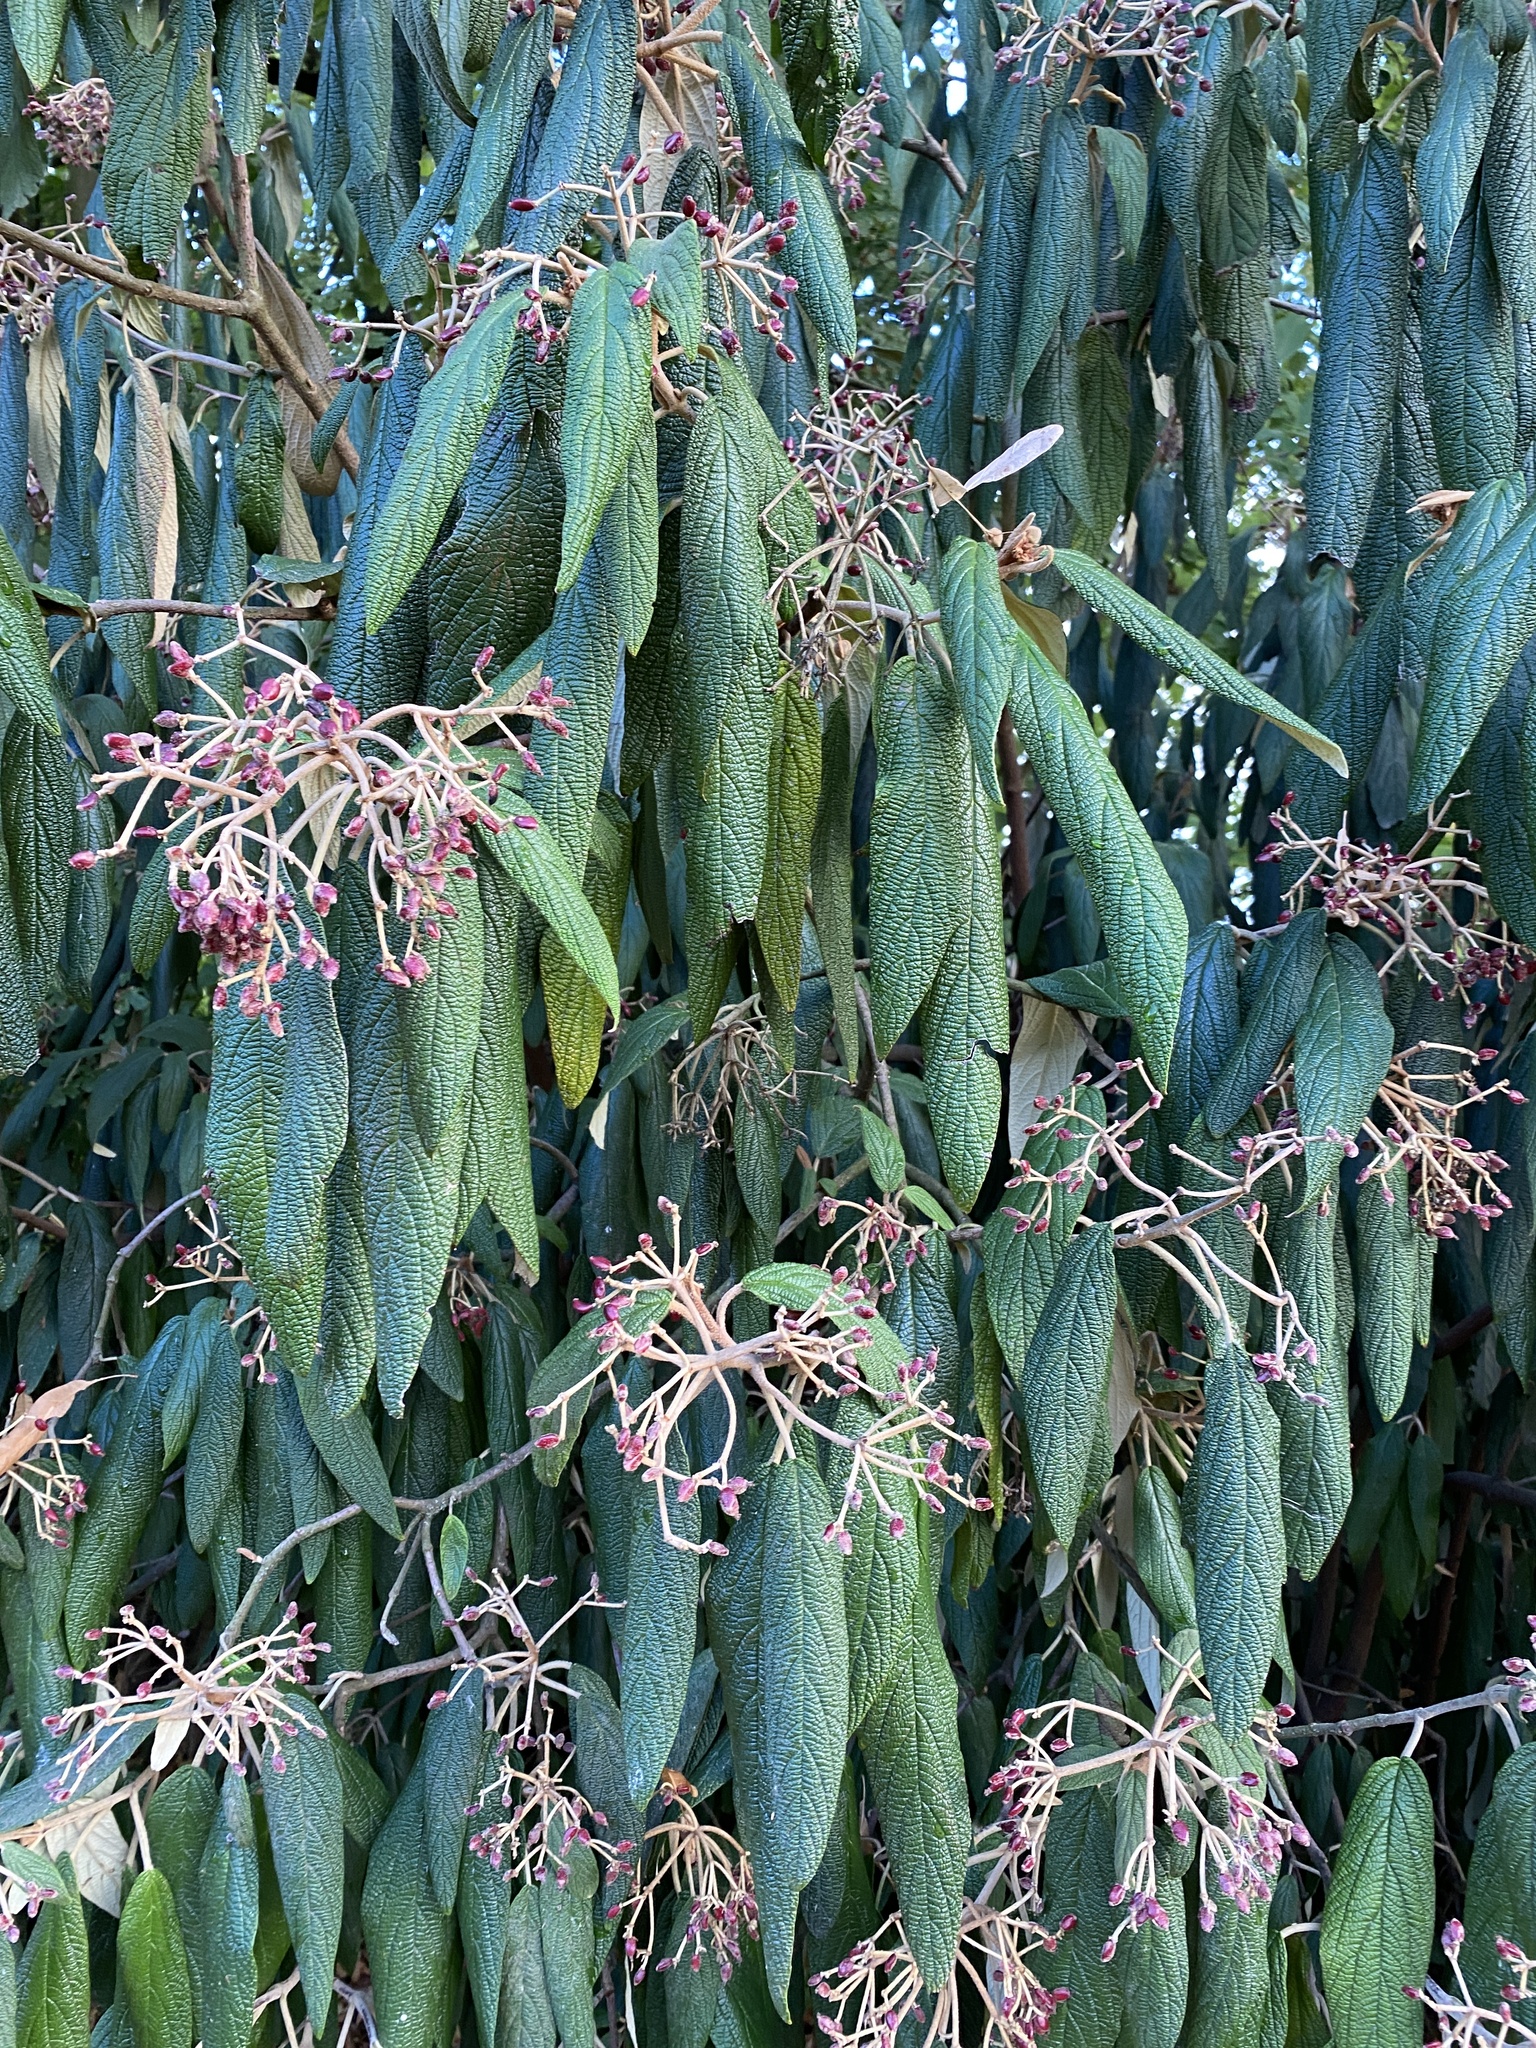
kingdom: Plantae
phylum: Tracheophyta
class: Magnoliopsida
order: Dipsacales
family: Viburnaceae
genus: Viburnum
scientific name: Viburnum rhytidophyllum
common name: Wrinkled viburnum
